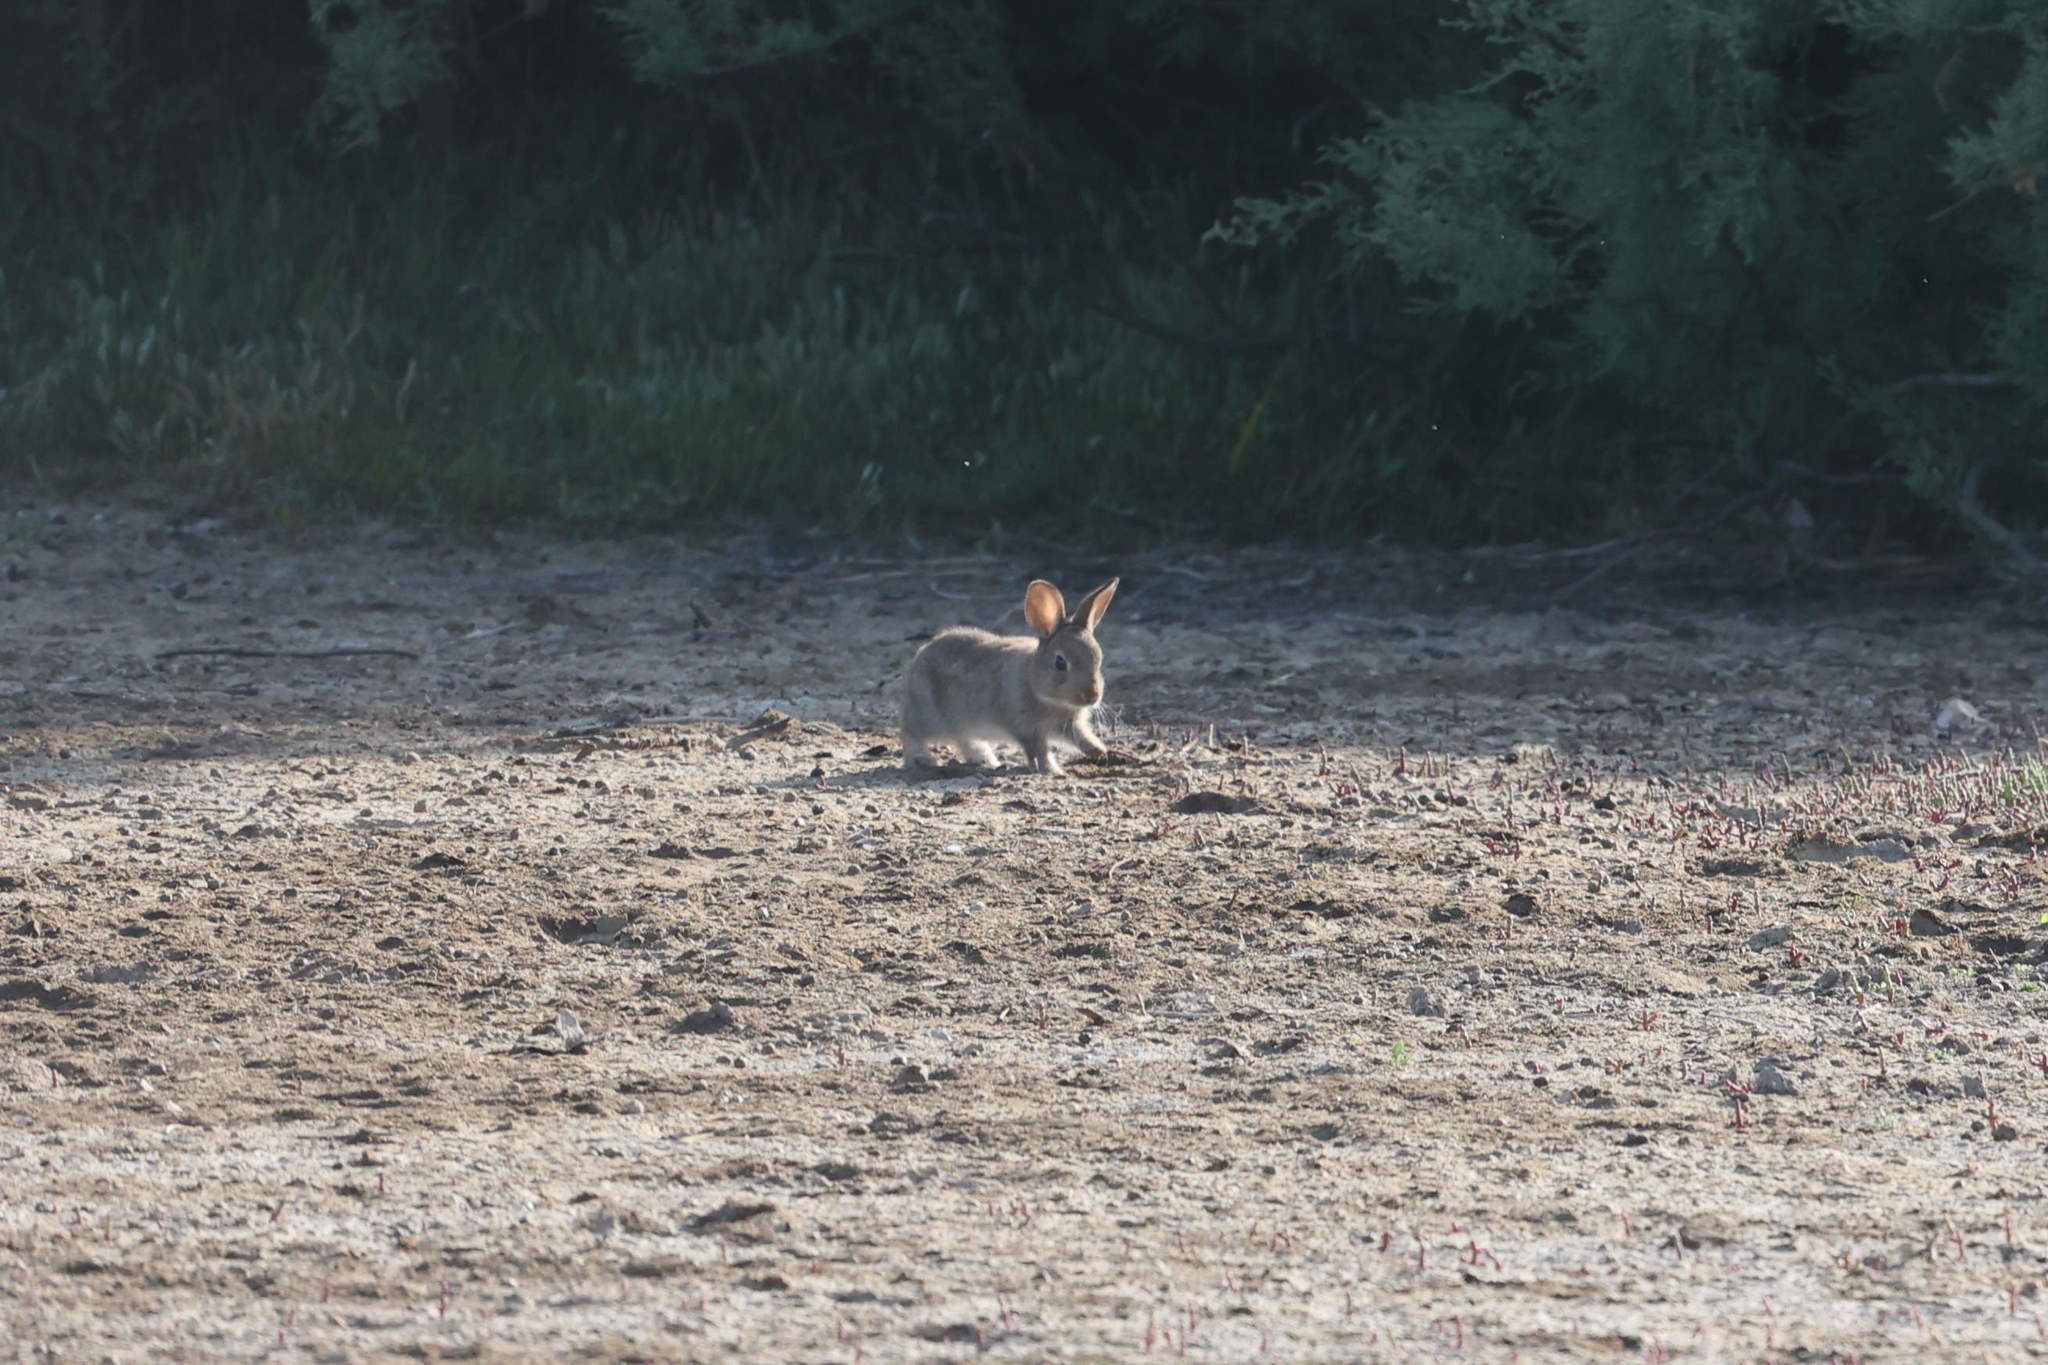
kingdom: Animalia
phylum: Chordata
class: Mammalia
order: Lagomorpha
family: Leporidae
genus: Oryctolagus
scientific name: Oryctolagus cuniculus
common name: European rabbit
